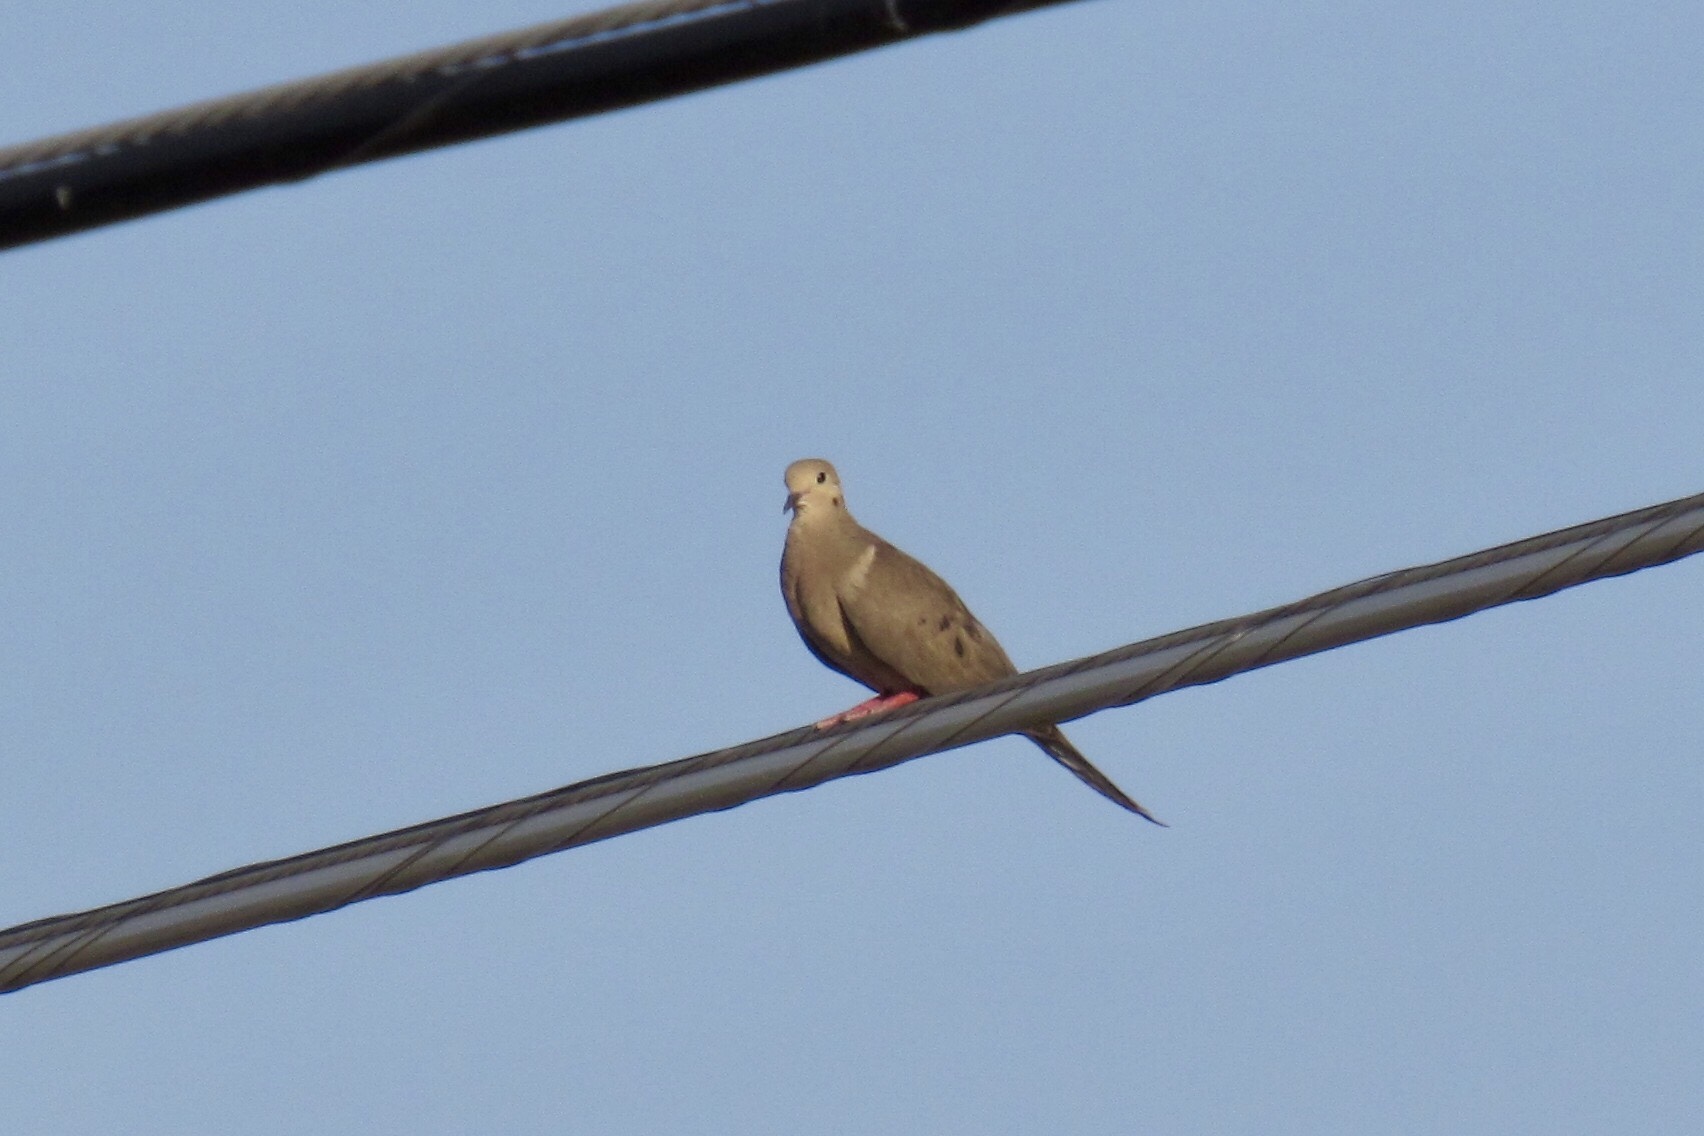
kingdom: Animalia
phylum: Chordata
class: Aves
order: Columbiformes
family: Columbidae
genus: Zenaida
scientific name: Zenaida macroura
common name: Mourning dove
